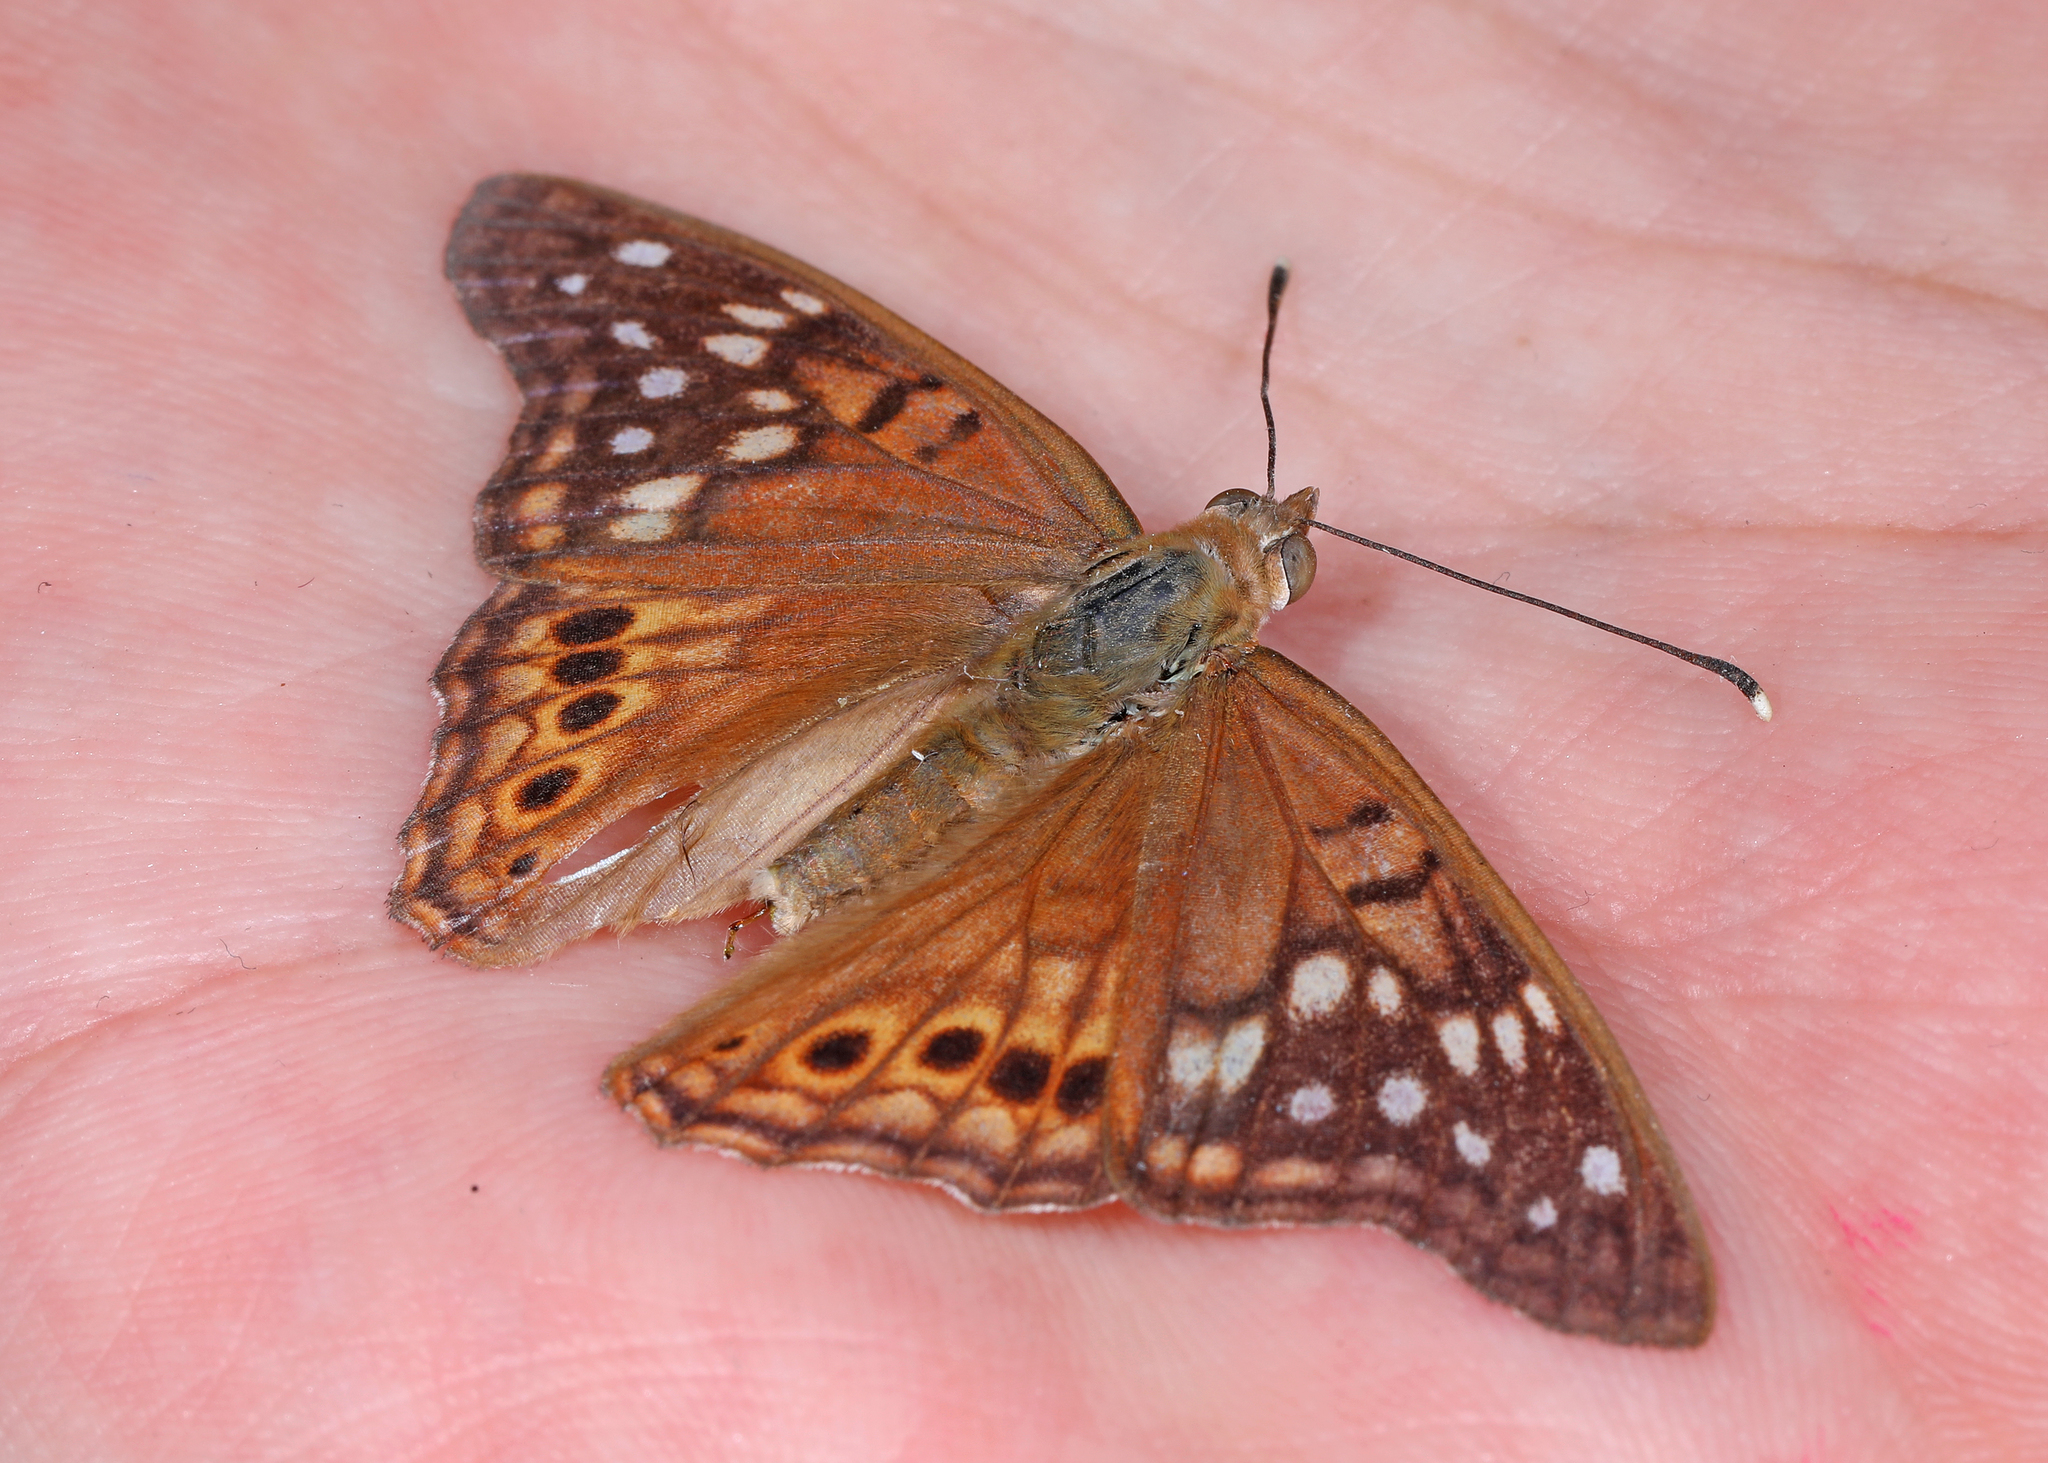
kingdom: Animalia
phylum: Arthropoda
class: Insecta
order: Lepidoptera
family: Nymphalidae
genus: Asterocampa
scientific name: Asterocampa clyton
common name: Tawny emperor
